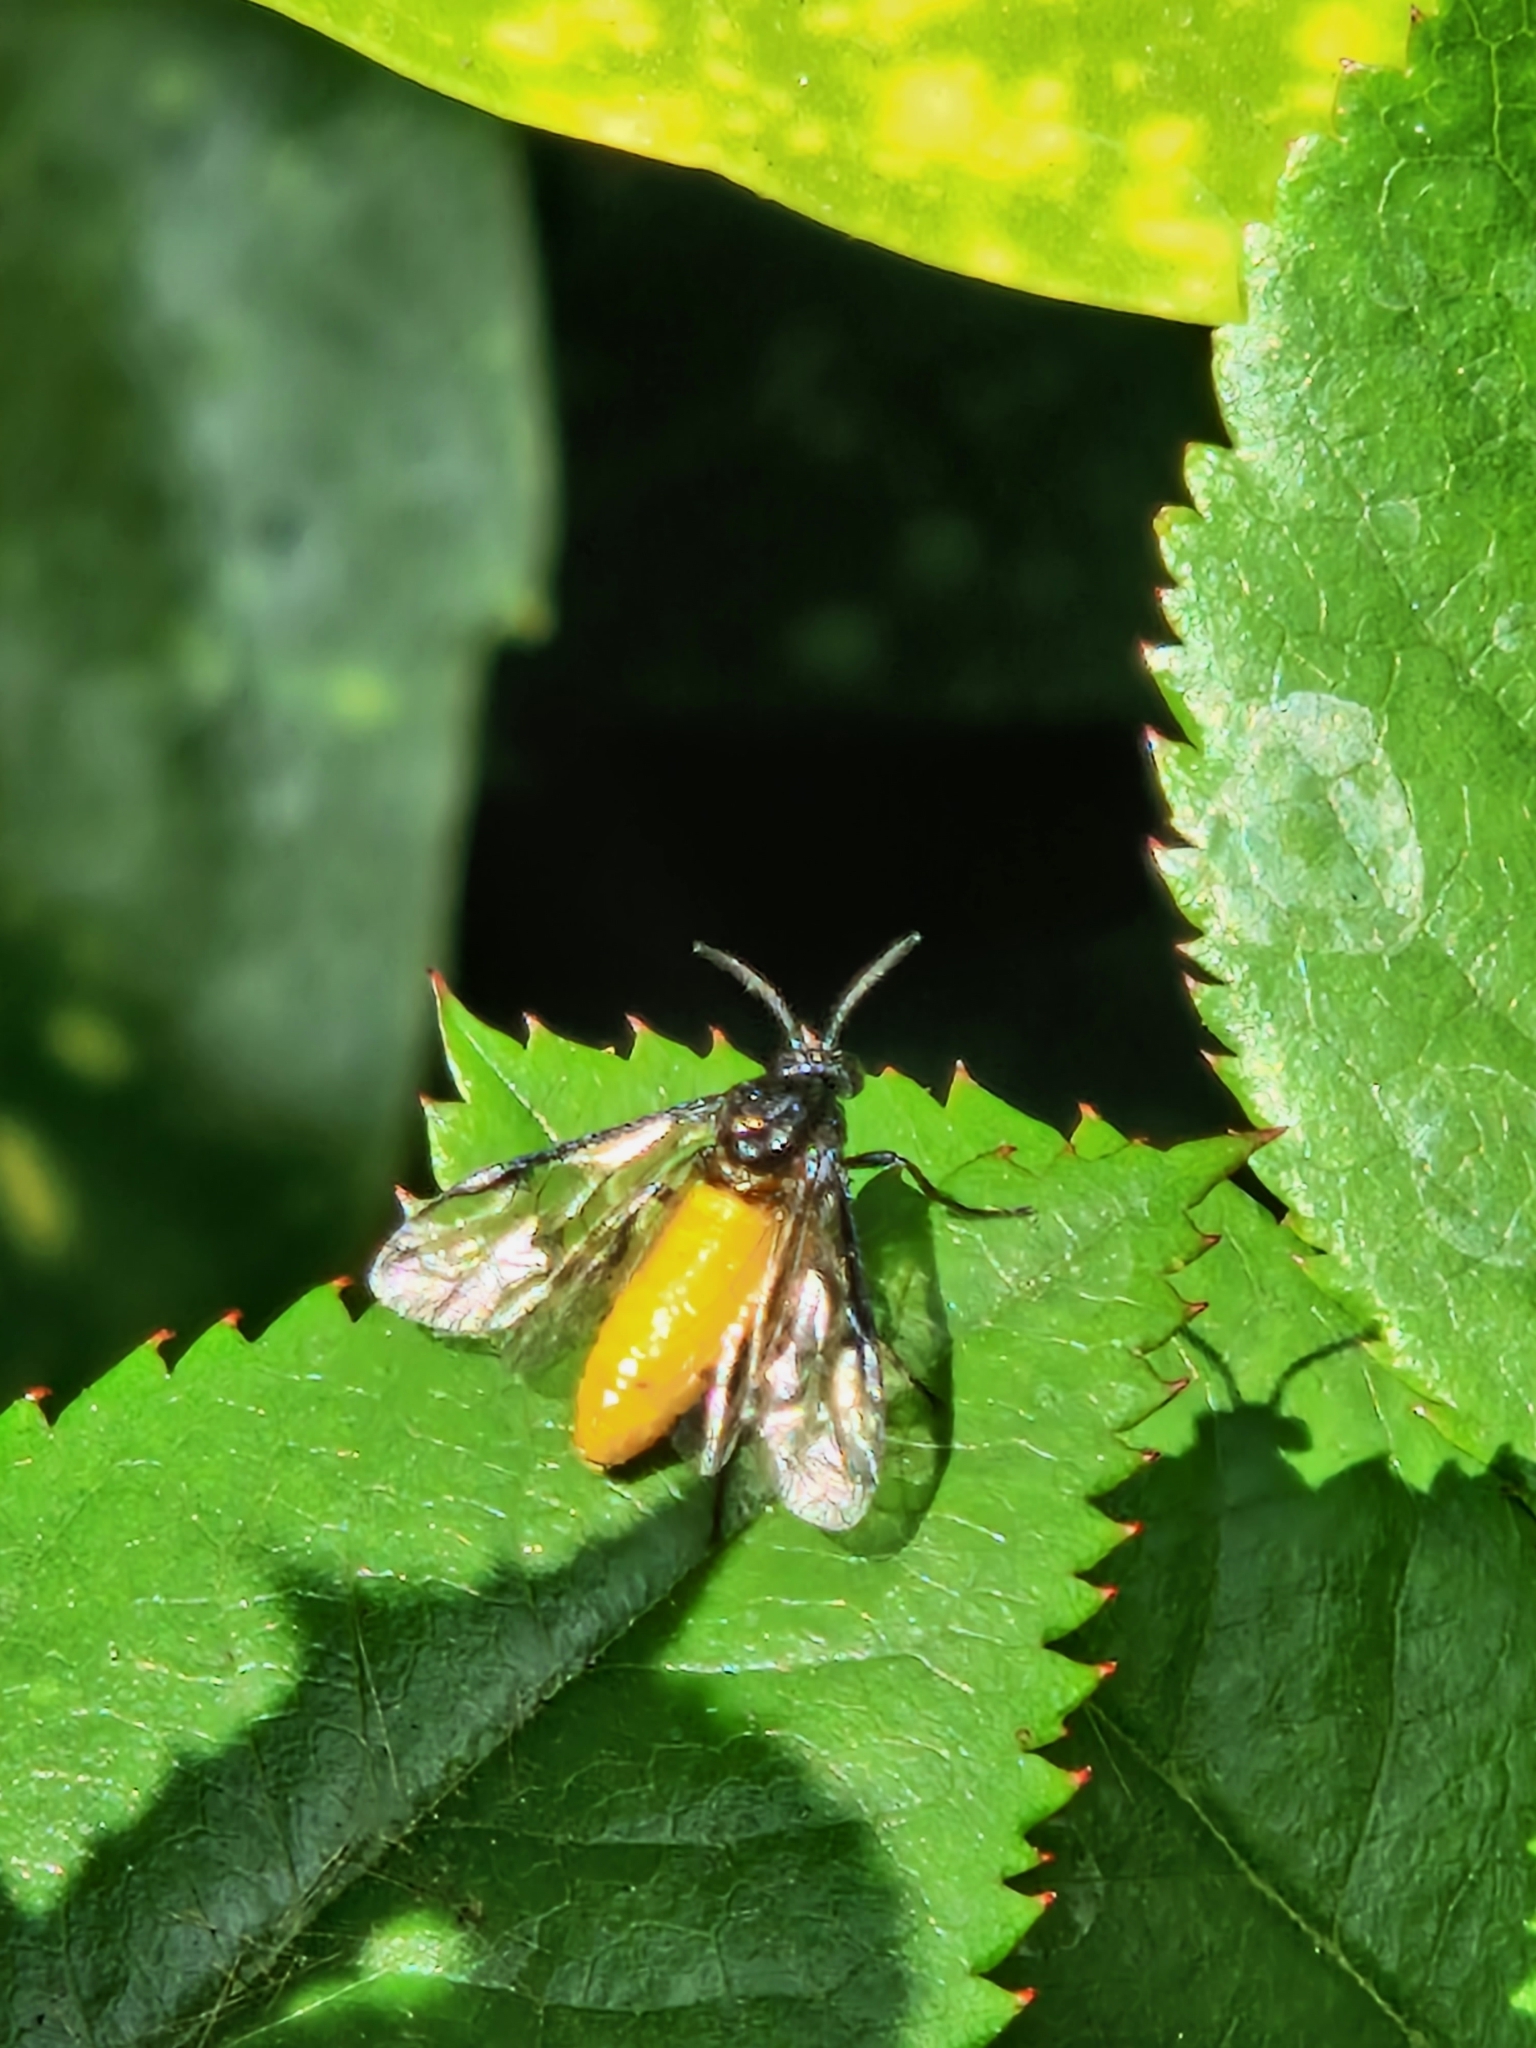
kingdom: Animalia
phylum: Arthropoda
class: Insecta
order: Hymenoptera
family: Argidae
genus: Arge
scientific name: Arge pagana
